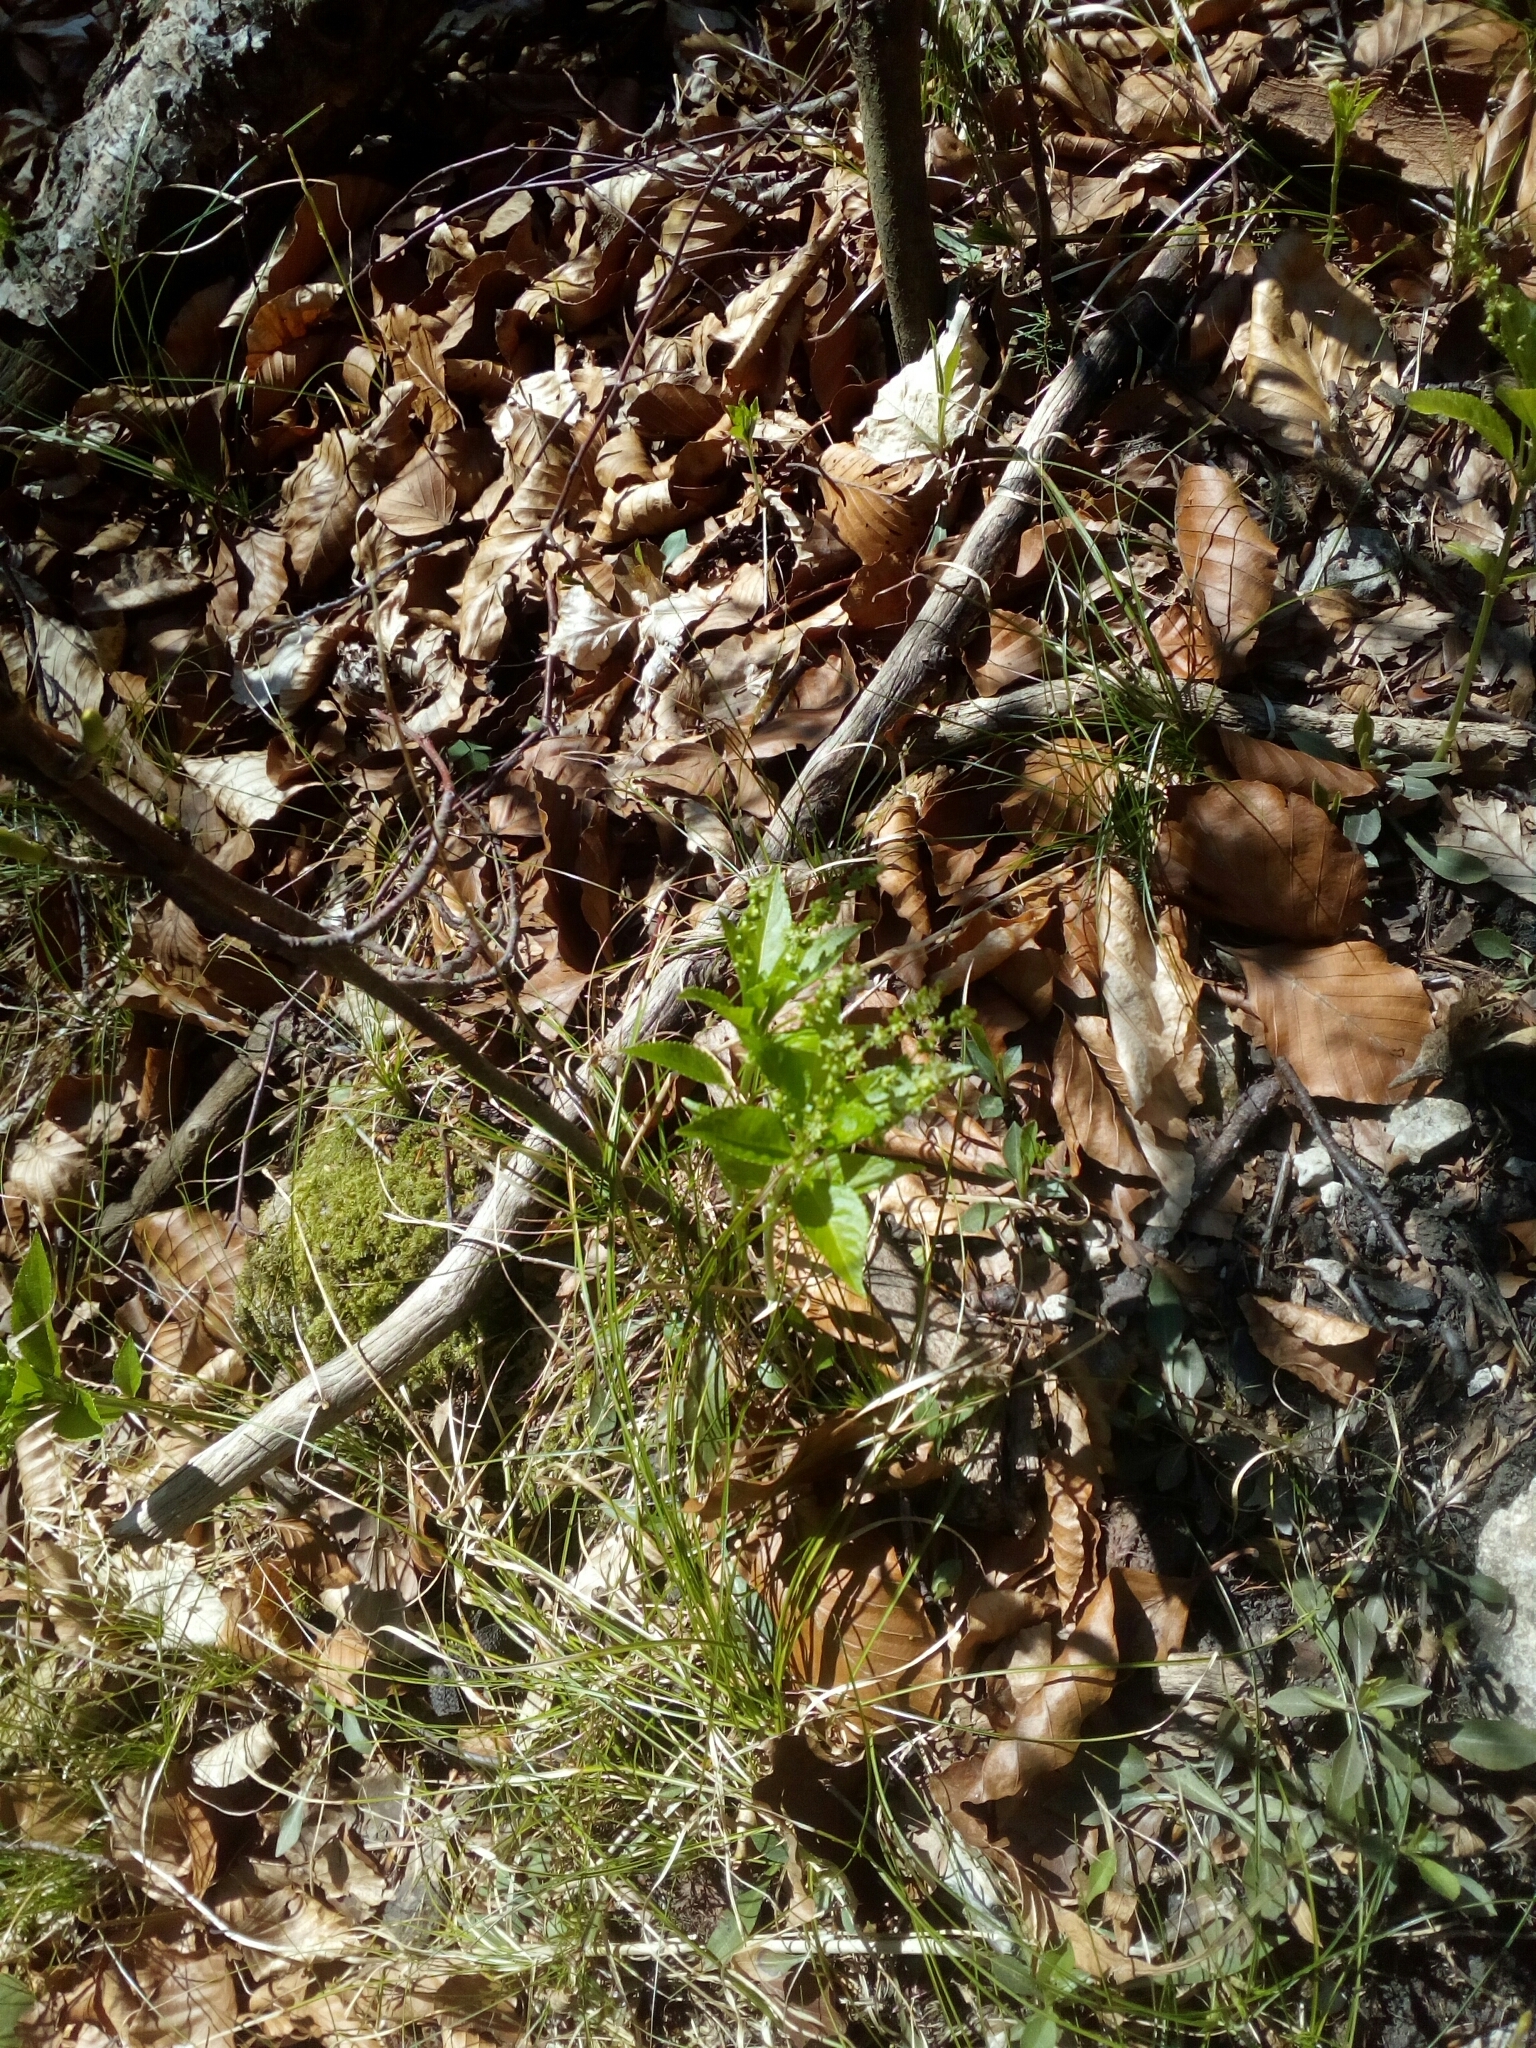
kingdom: Plantae
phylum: Tracheophyta
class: Magnoliopsida
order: Malpighiales
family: Euphorbiaceae
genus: Mercurialis
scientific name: Mercurialis perennis
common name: Dog mercury
